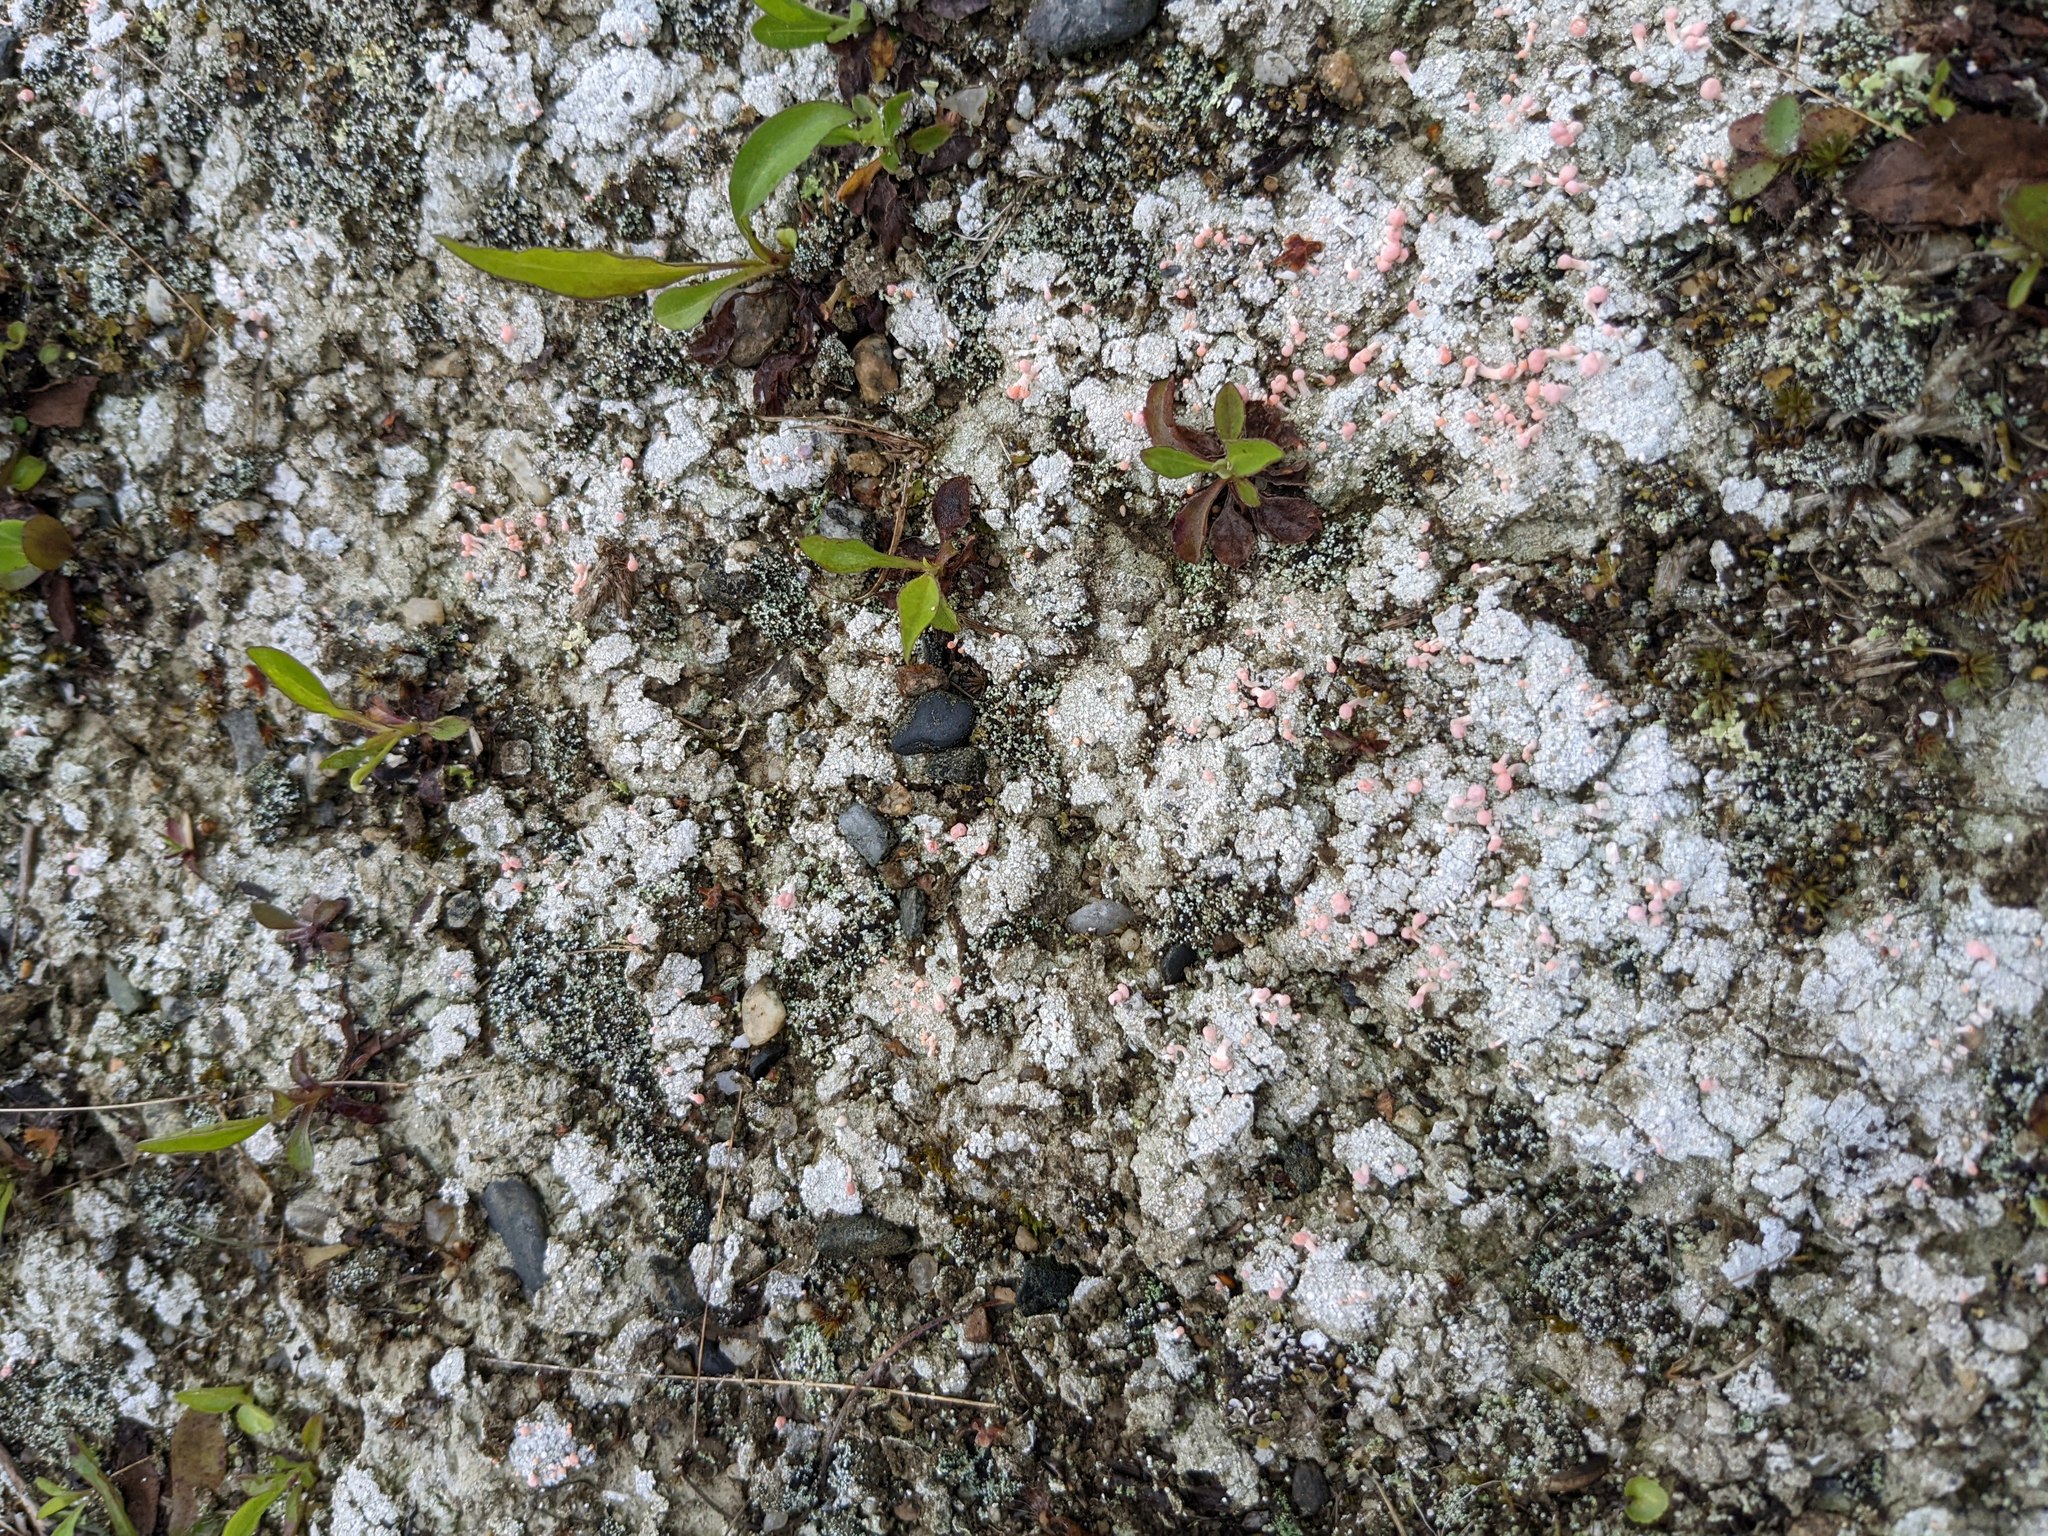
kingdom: Fungi
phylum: Ascomycota
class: Lecanoromycetes
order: Pertusariales
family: Icmadophilaceae
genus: Dibaeis
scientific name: Dibaeis baeomyces
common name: Pink earth lichen
